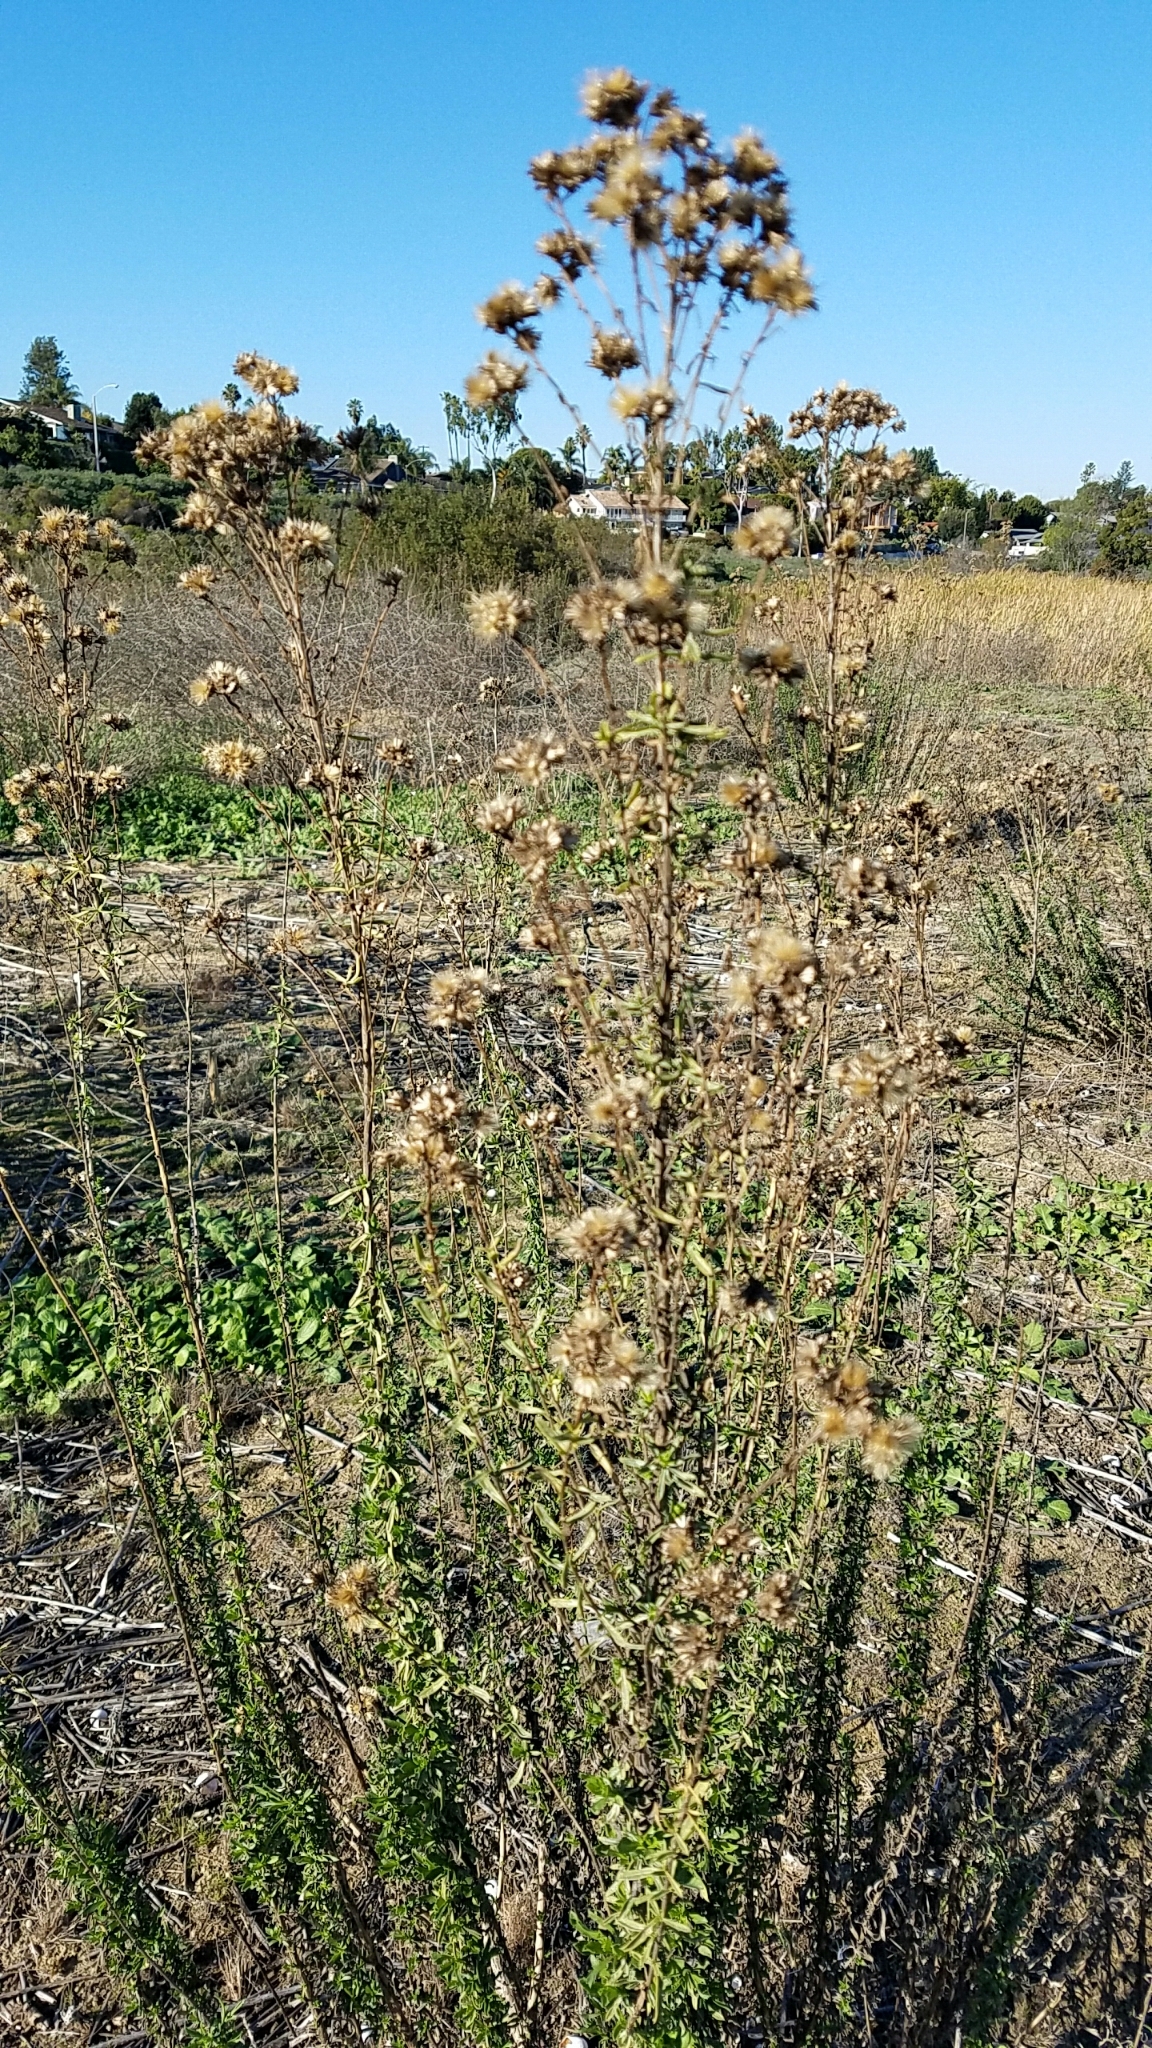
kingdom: Plantae
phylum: Tracheophyta
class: Magnoliopsida
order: Asterales
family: Asteraceae
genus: Isocoma
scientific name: Isocoma menziesii
